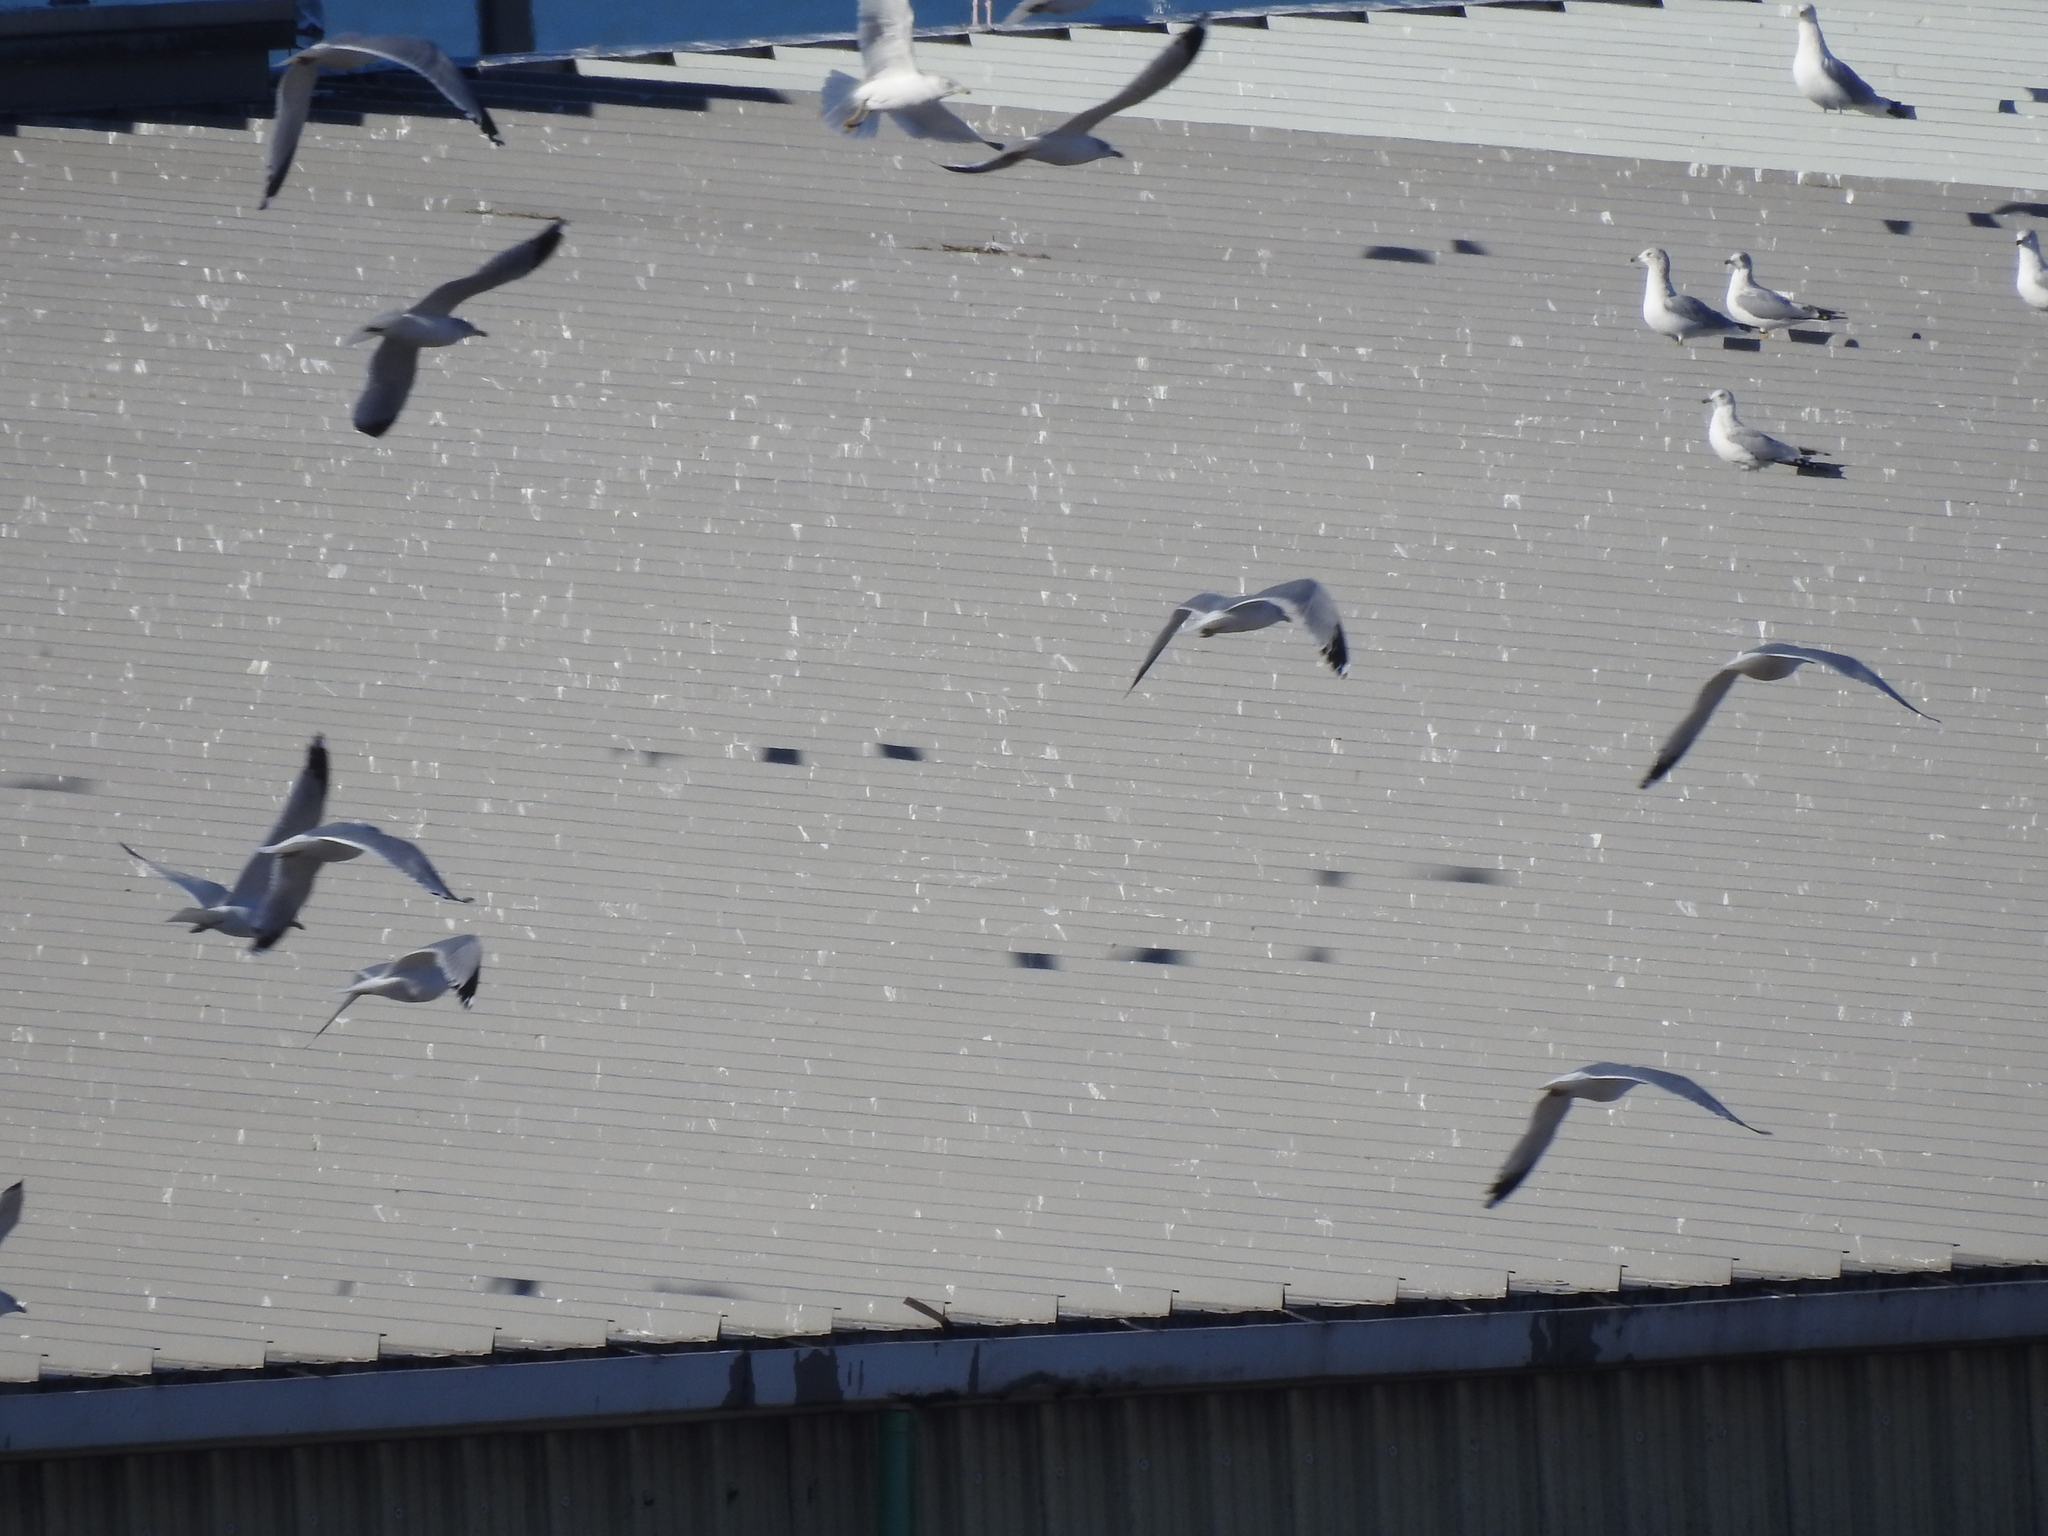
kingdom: Animalia
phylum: Chordata
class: Aves
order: Charadriiformes
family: Laridae
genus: Larus
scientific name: Larus delawarensis
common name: Ring-billed gull
